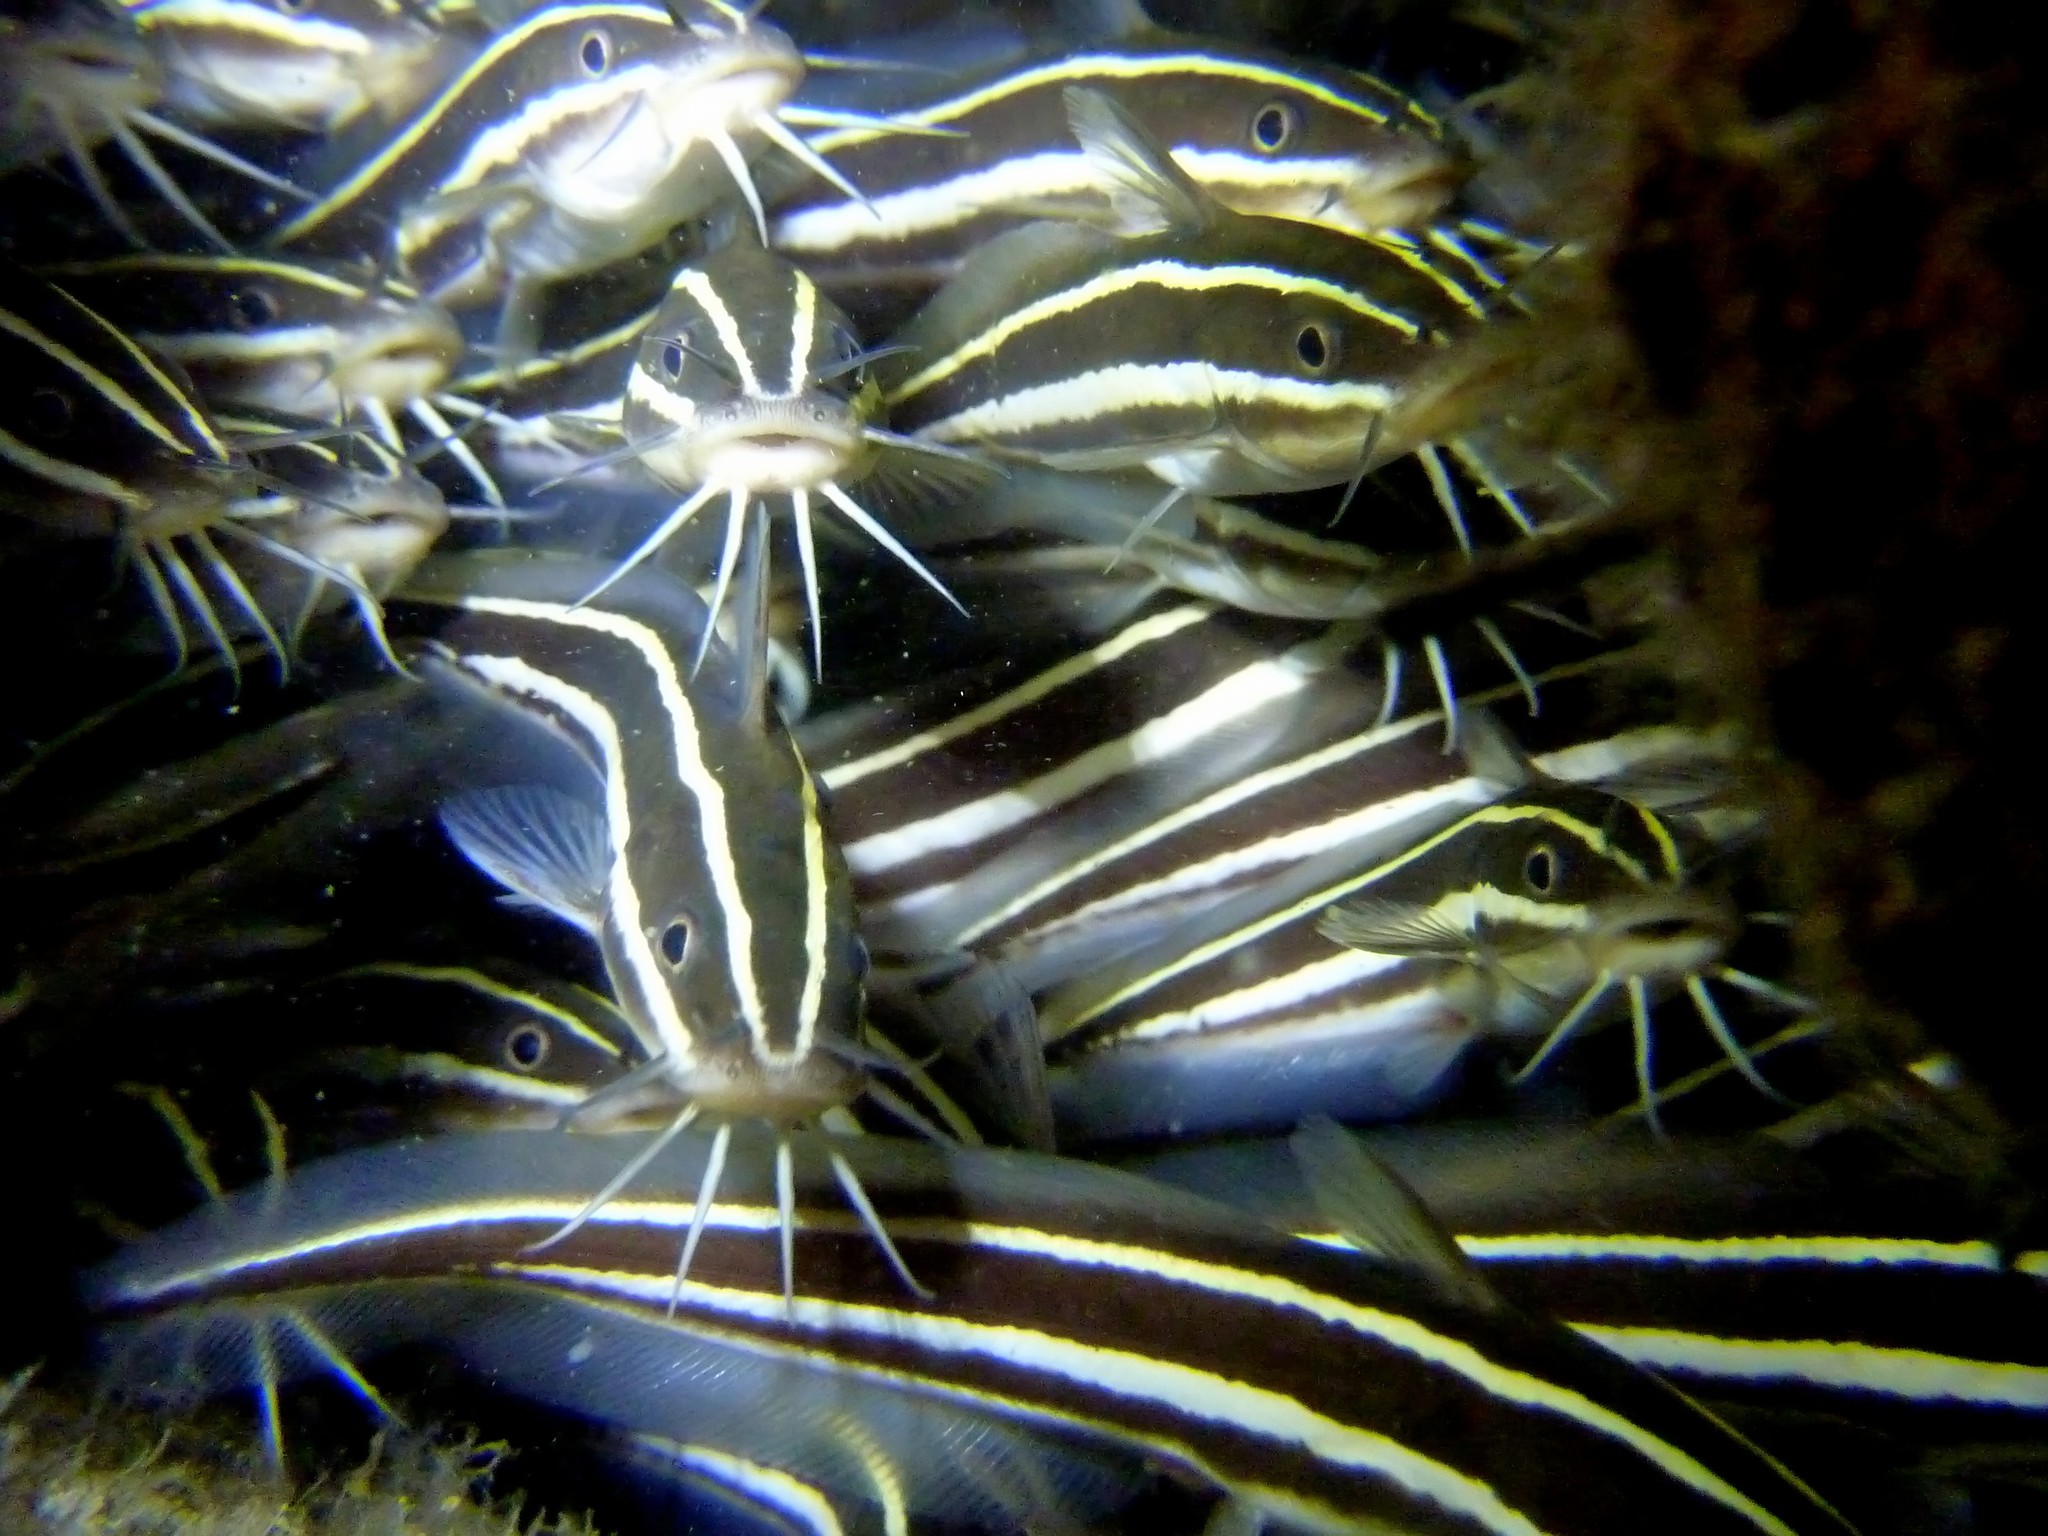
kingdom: Animalia
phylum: Chordata
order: Siluriformes
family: Plotosidae
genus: Plotosus
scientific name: Plotosus lineatus
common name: Striped eel catfish
